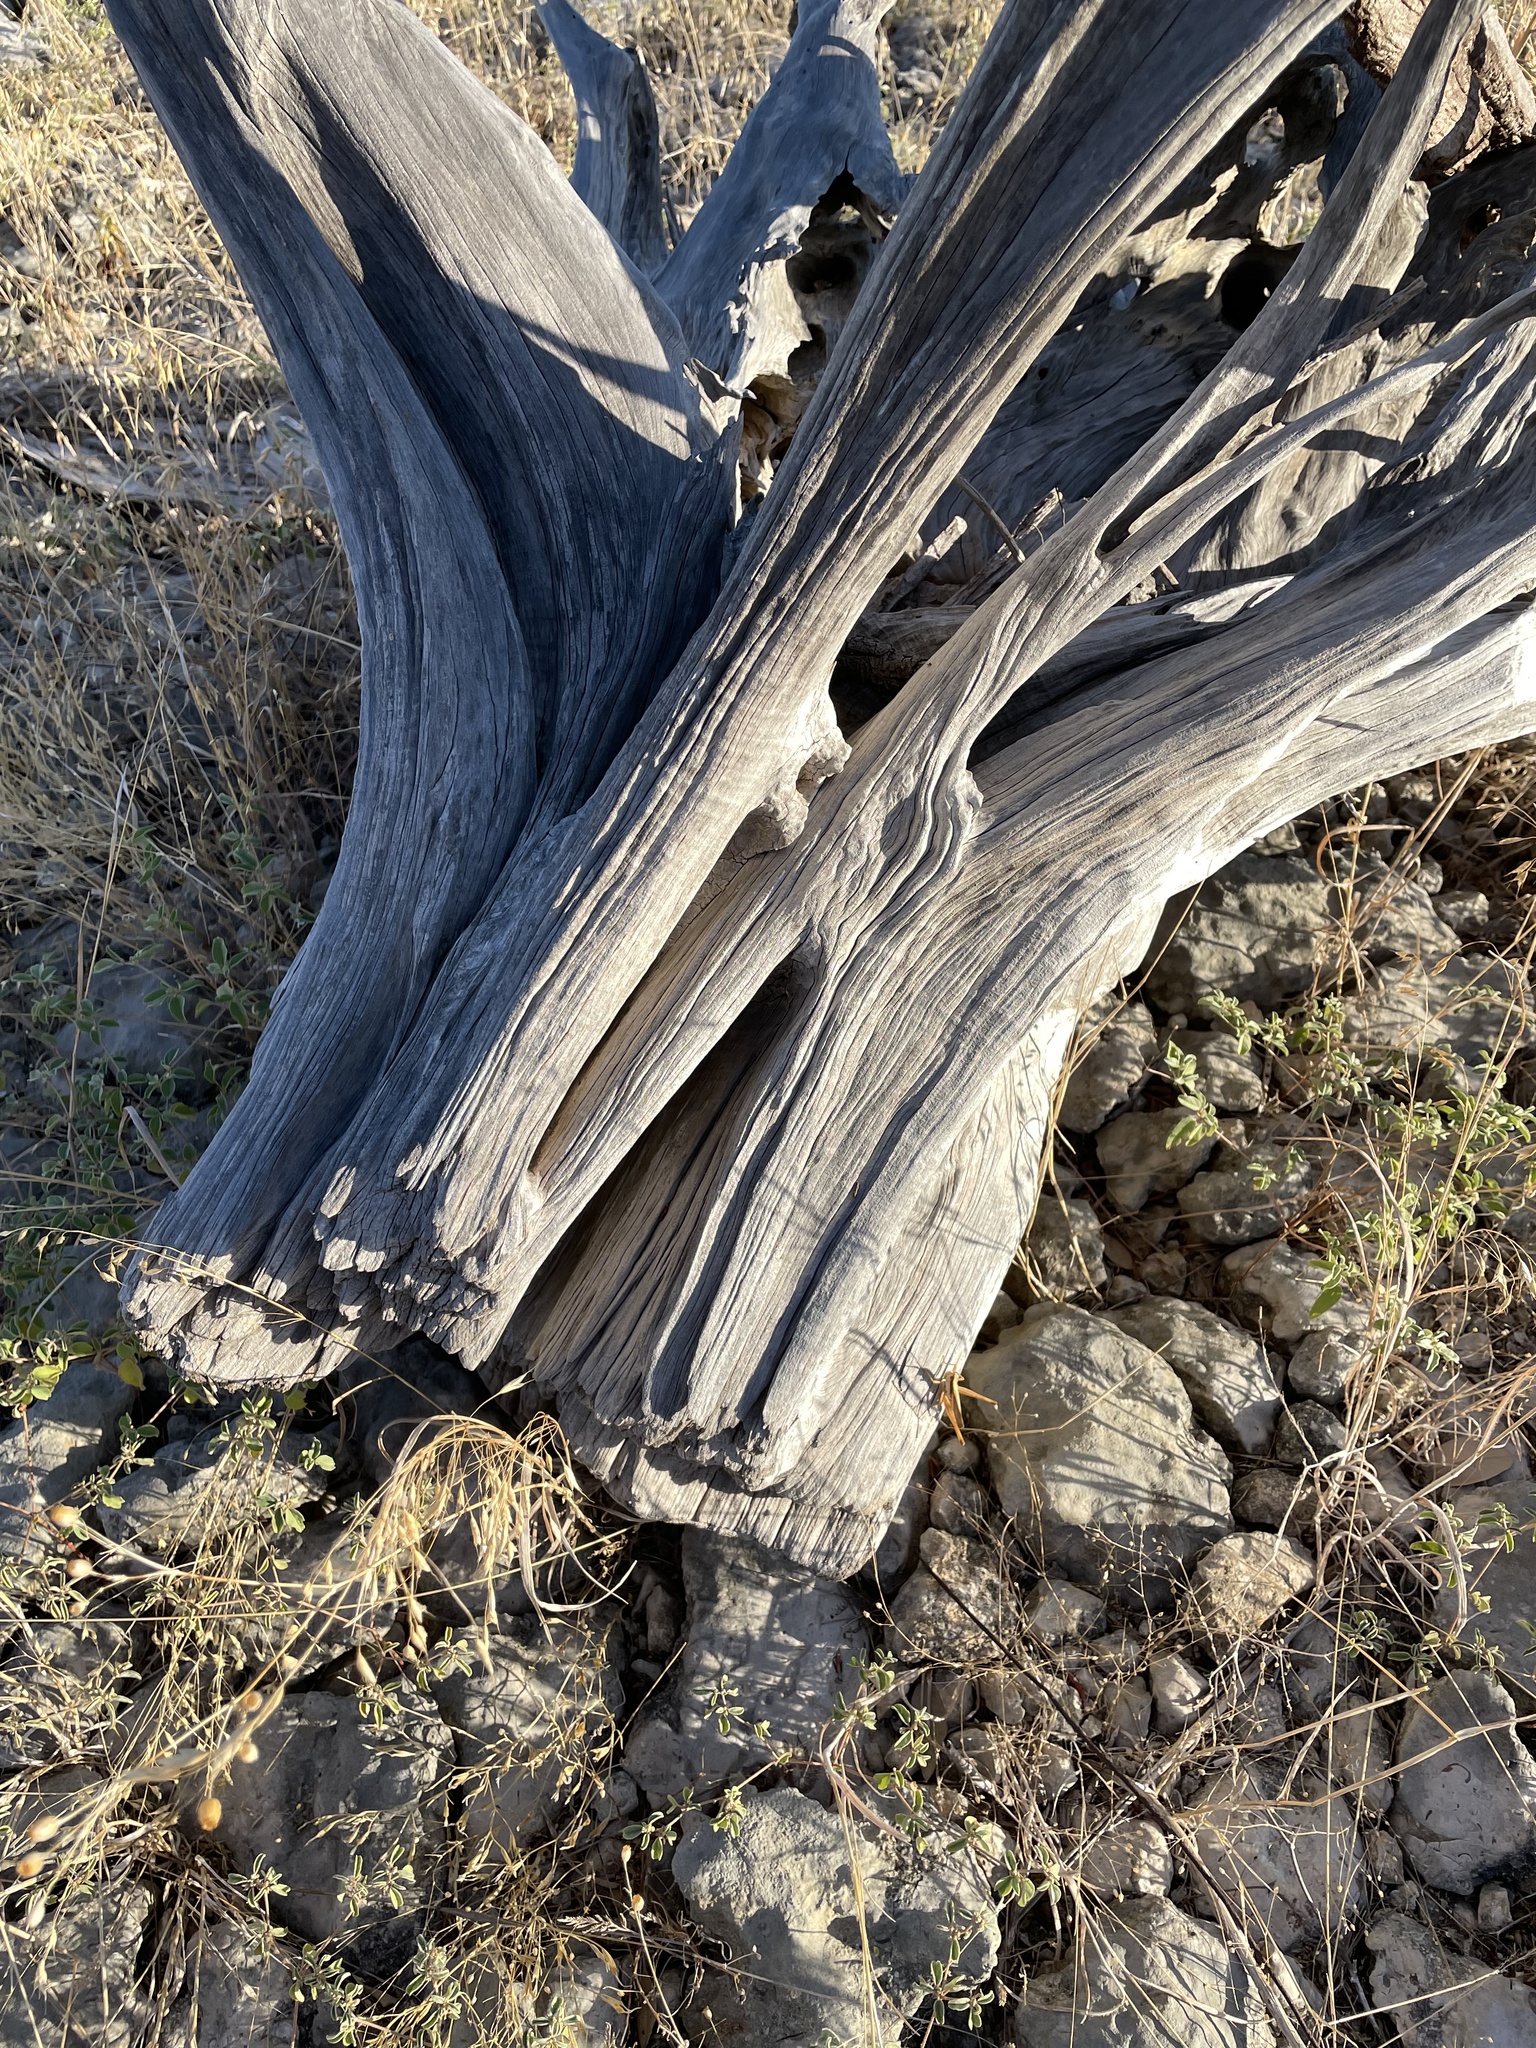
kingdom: Plantae
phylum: Tracheophyta
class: Pinopsida
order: Pinales
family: Cupressaceae
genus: Juniperus
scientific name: Juniperus ashei
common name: Mexican juniper
